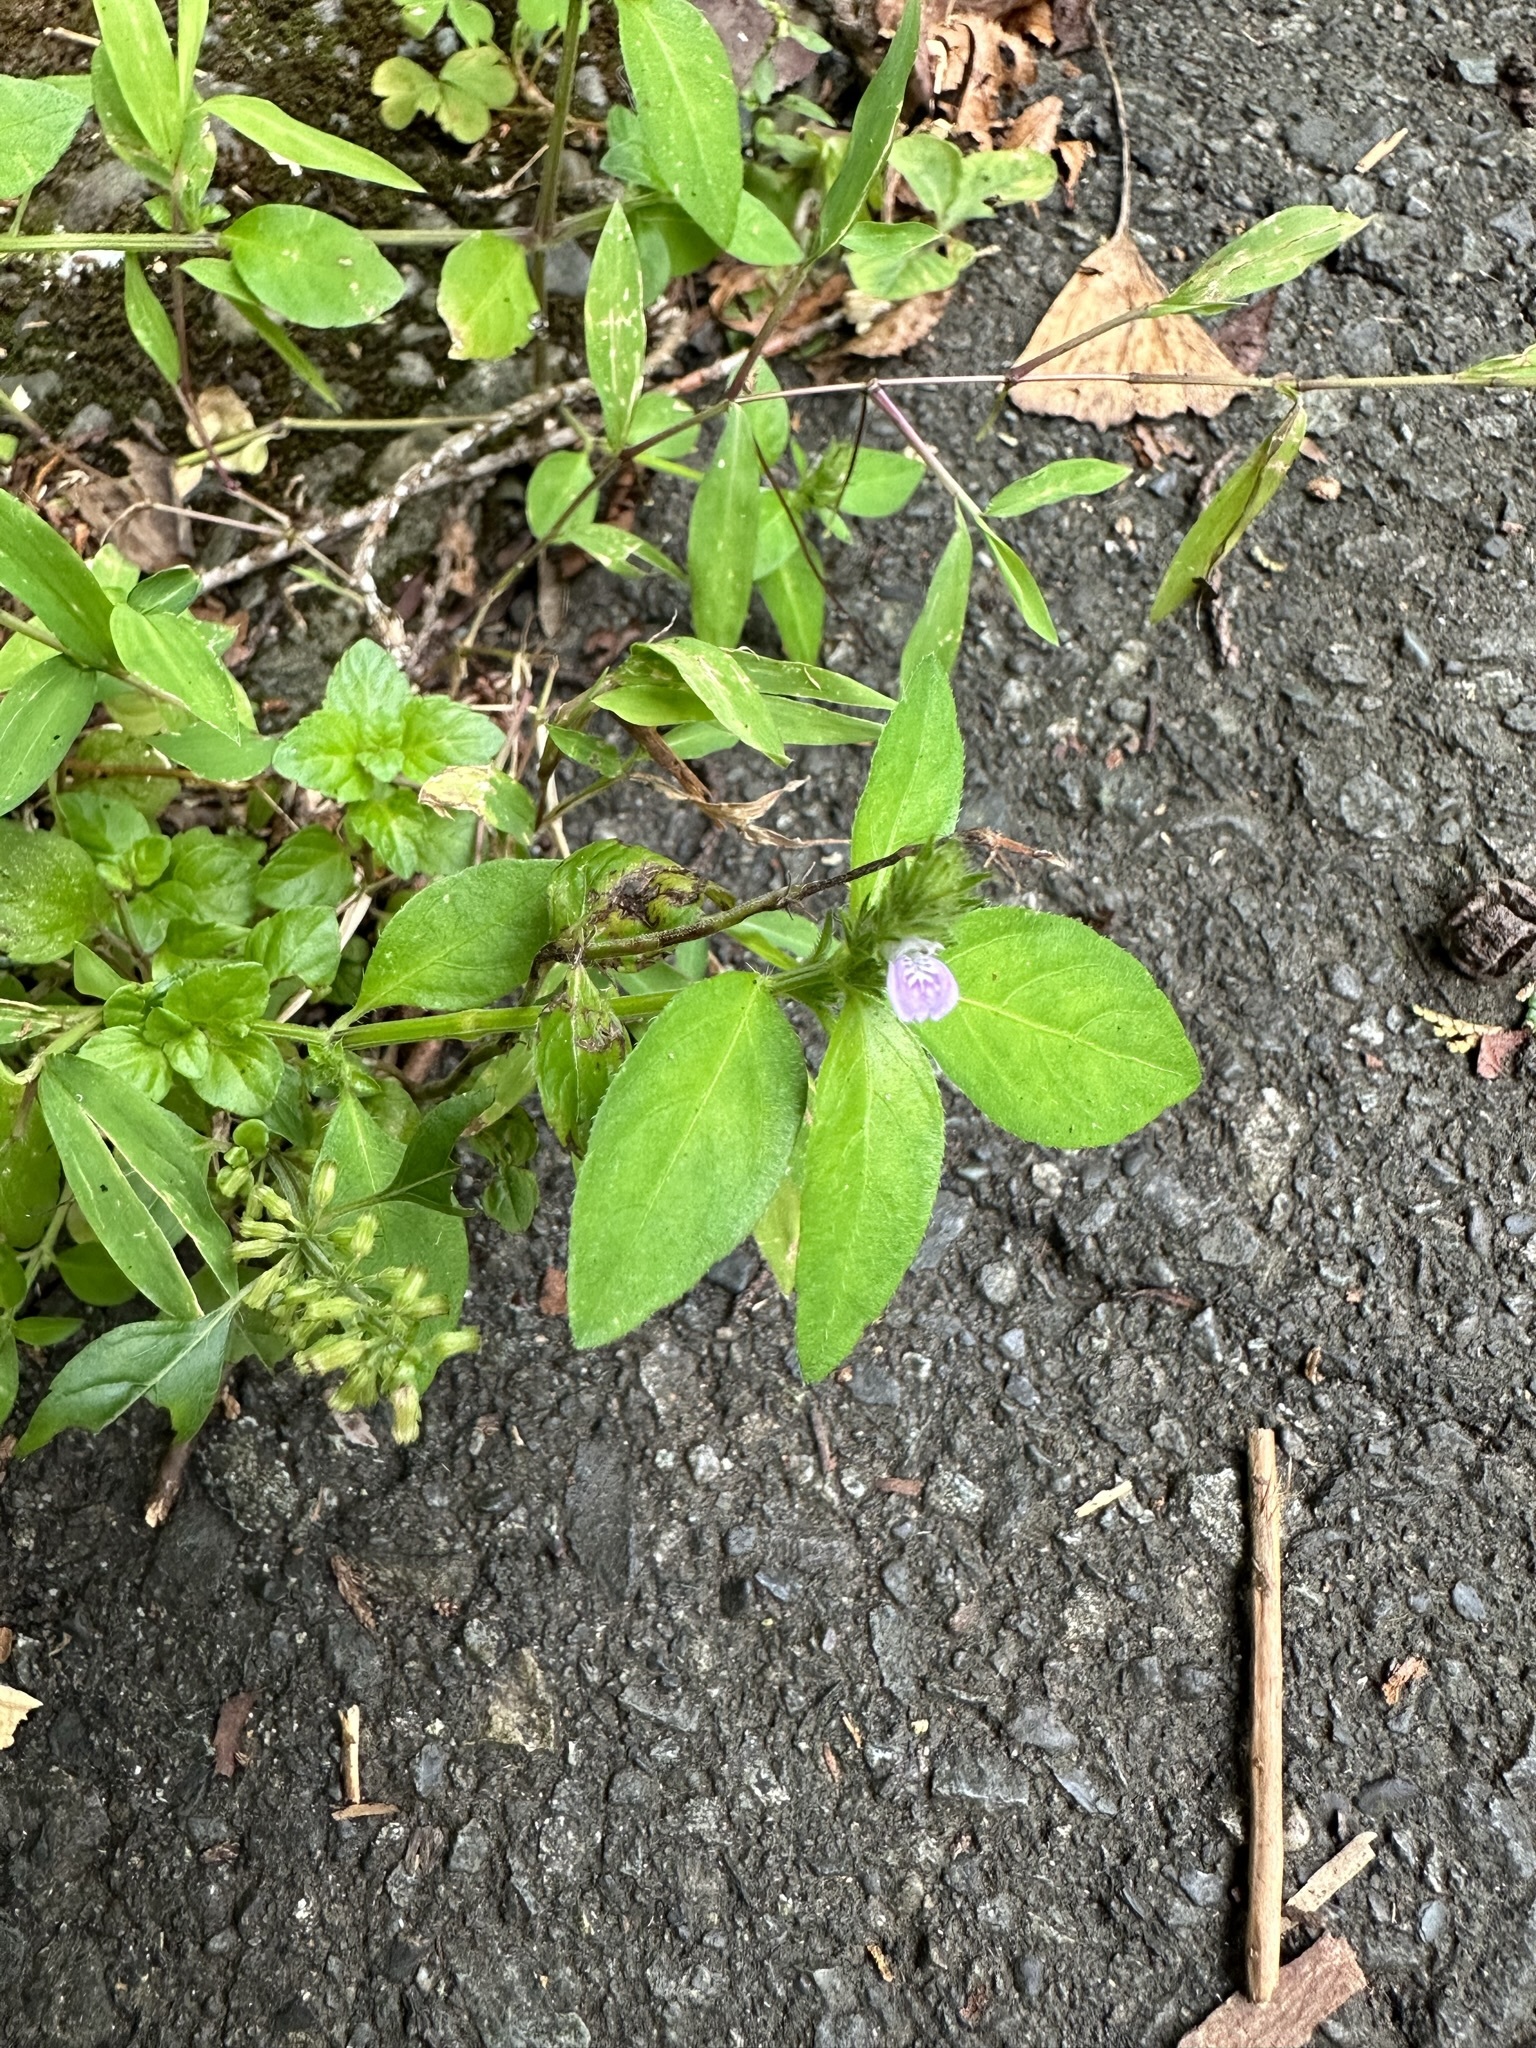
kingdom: Plantae
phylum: Tracheophyta
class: Magnoliopsida
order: Lamiales
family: Acanthaceae
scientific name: Acanthaceae
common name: Acanthaceae
